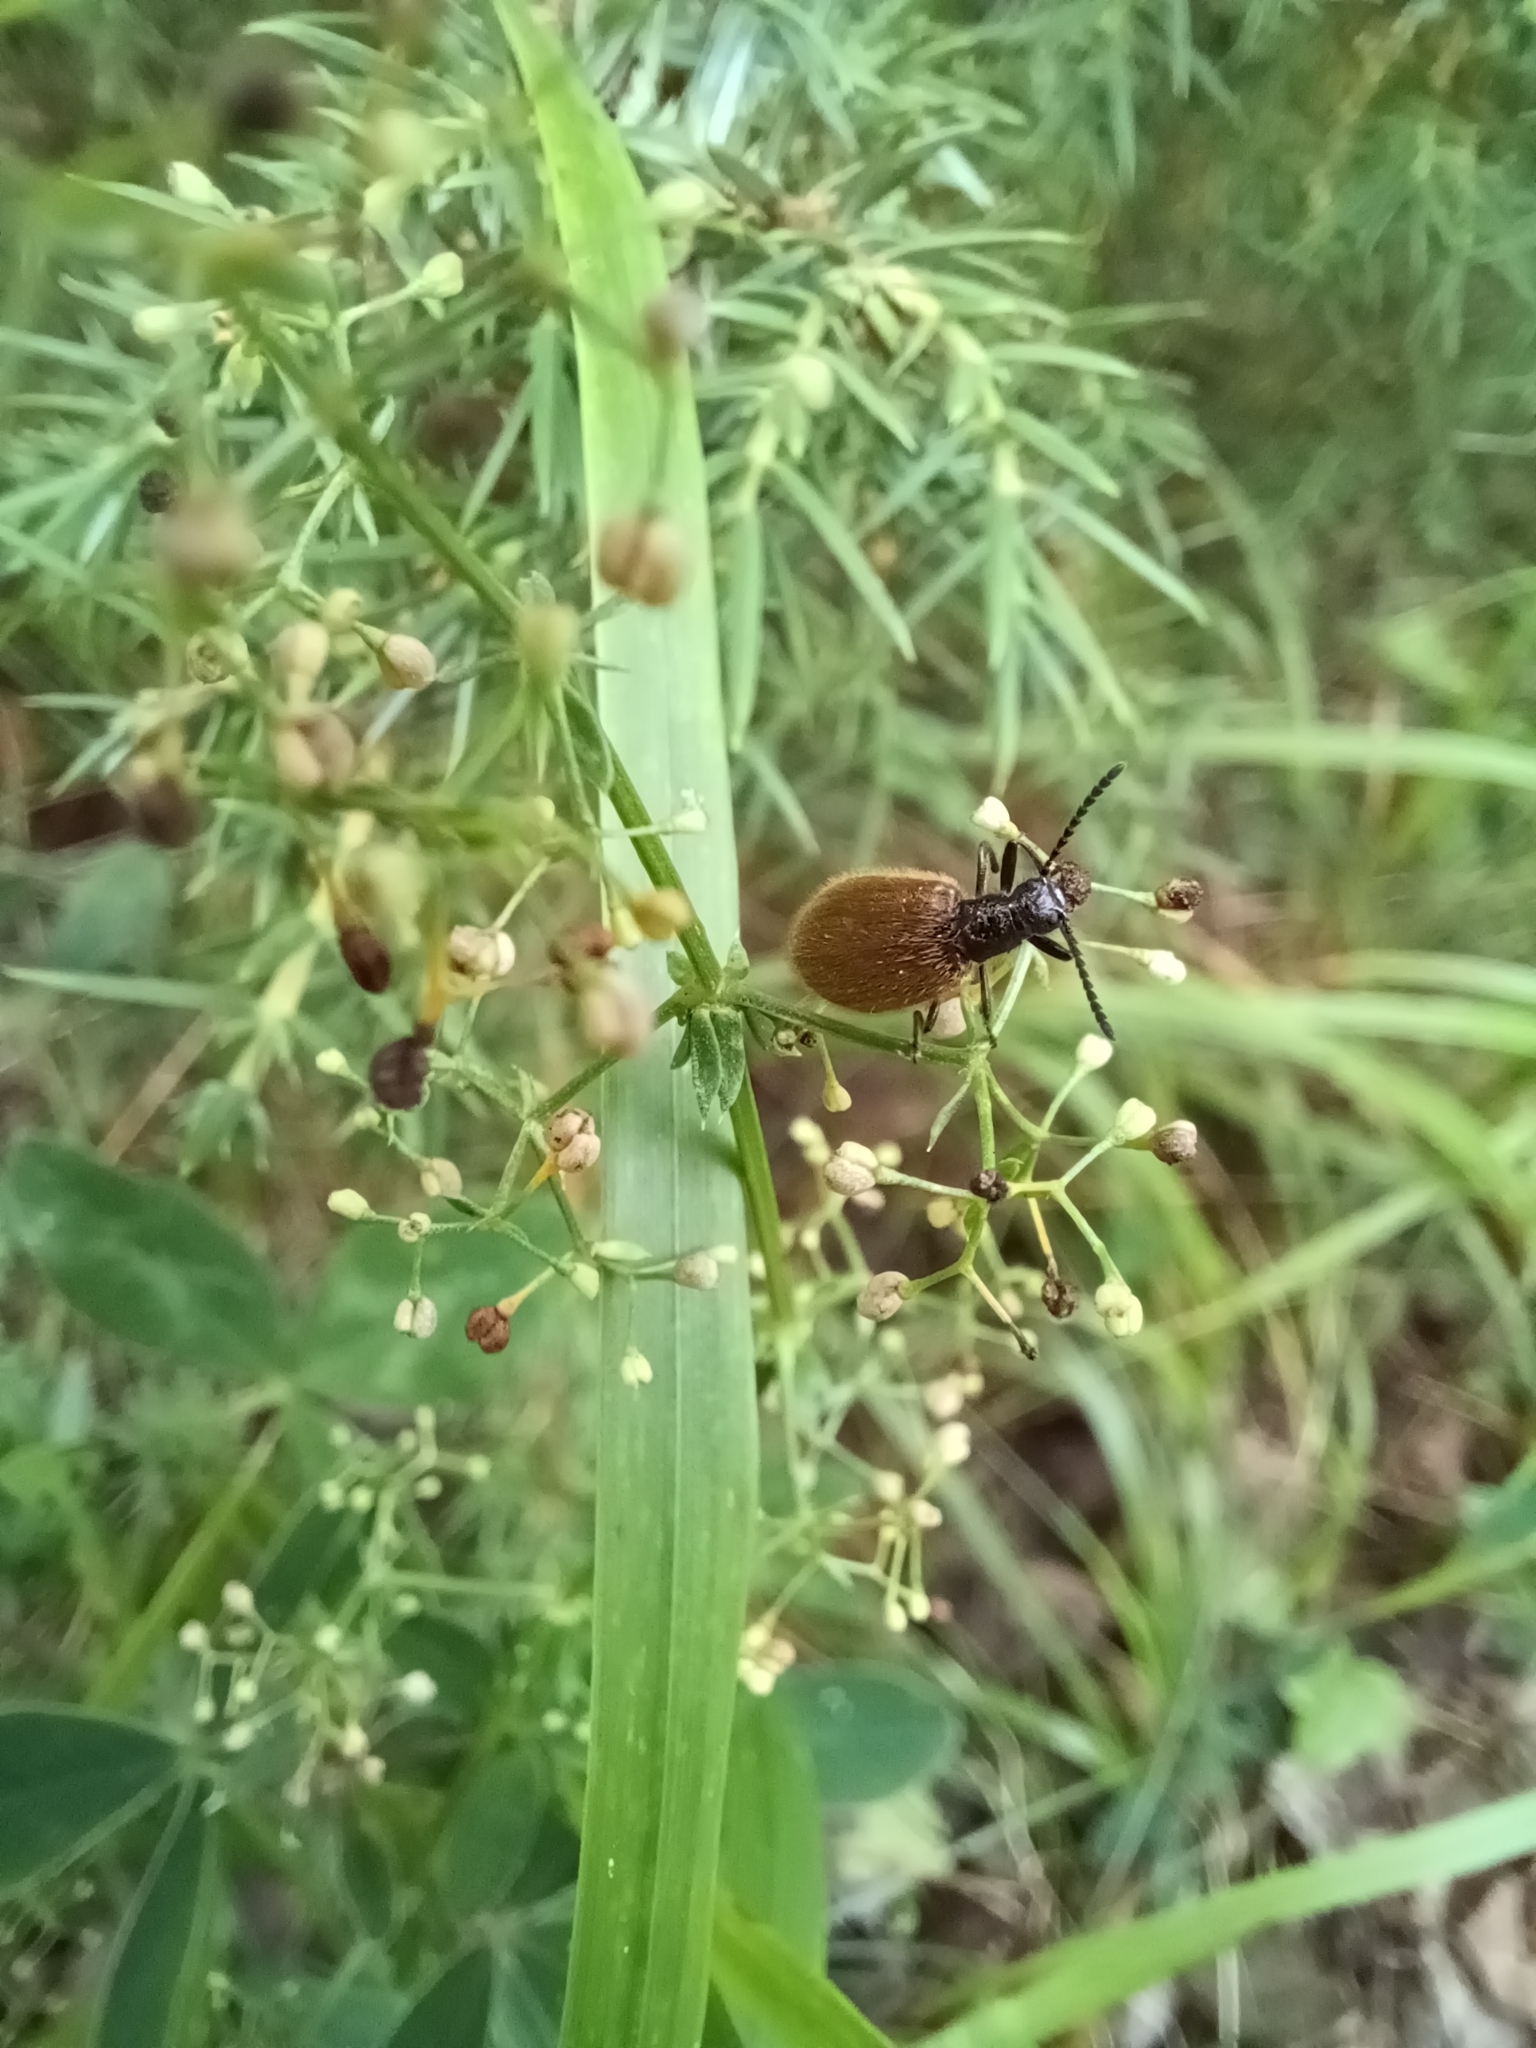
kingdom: Animalia
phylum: Arthropoda
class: Insecta
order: Coleoptera
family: Tenebrionidae
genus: Lagria
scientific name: Lagria hirta
